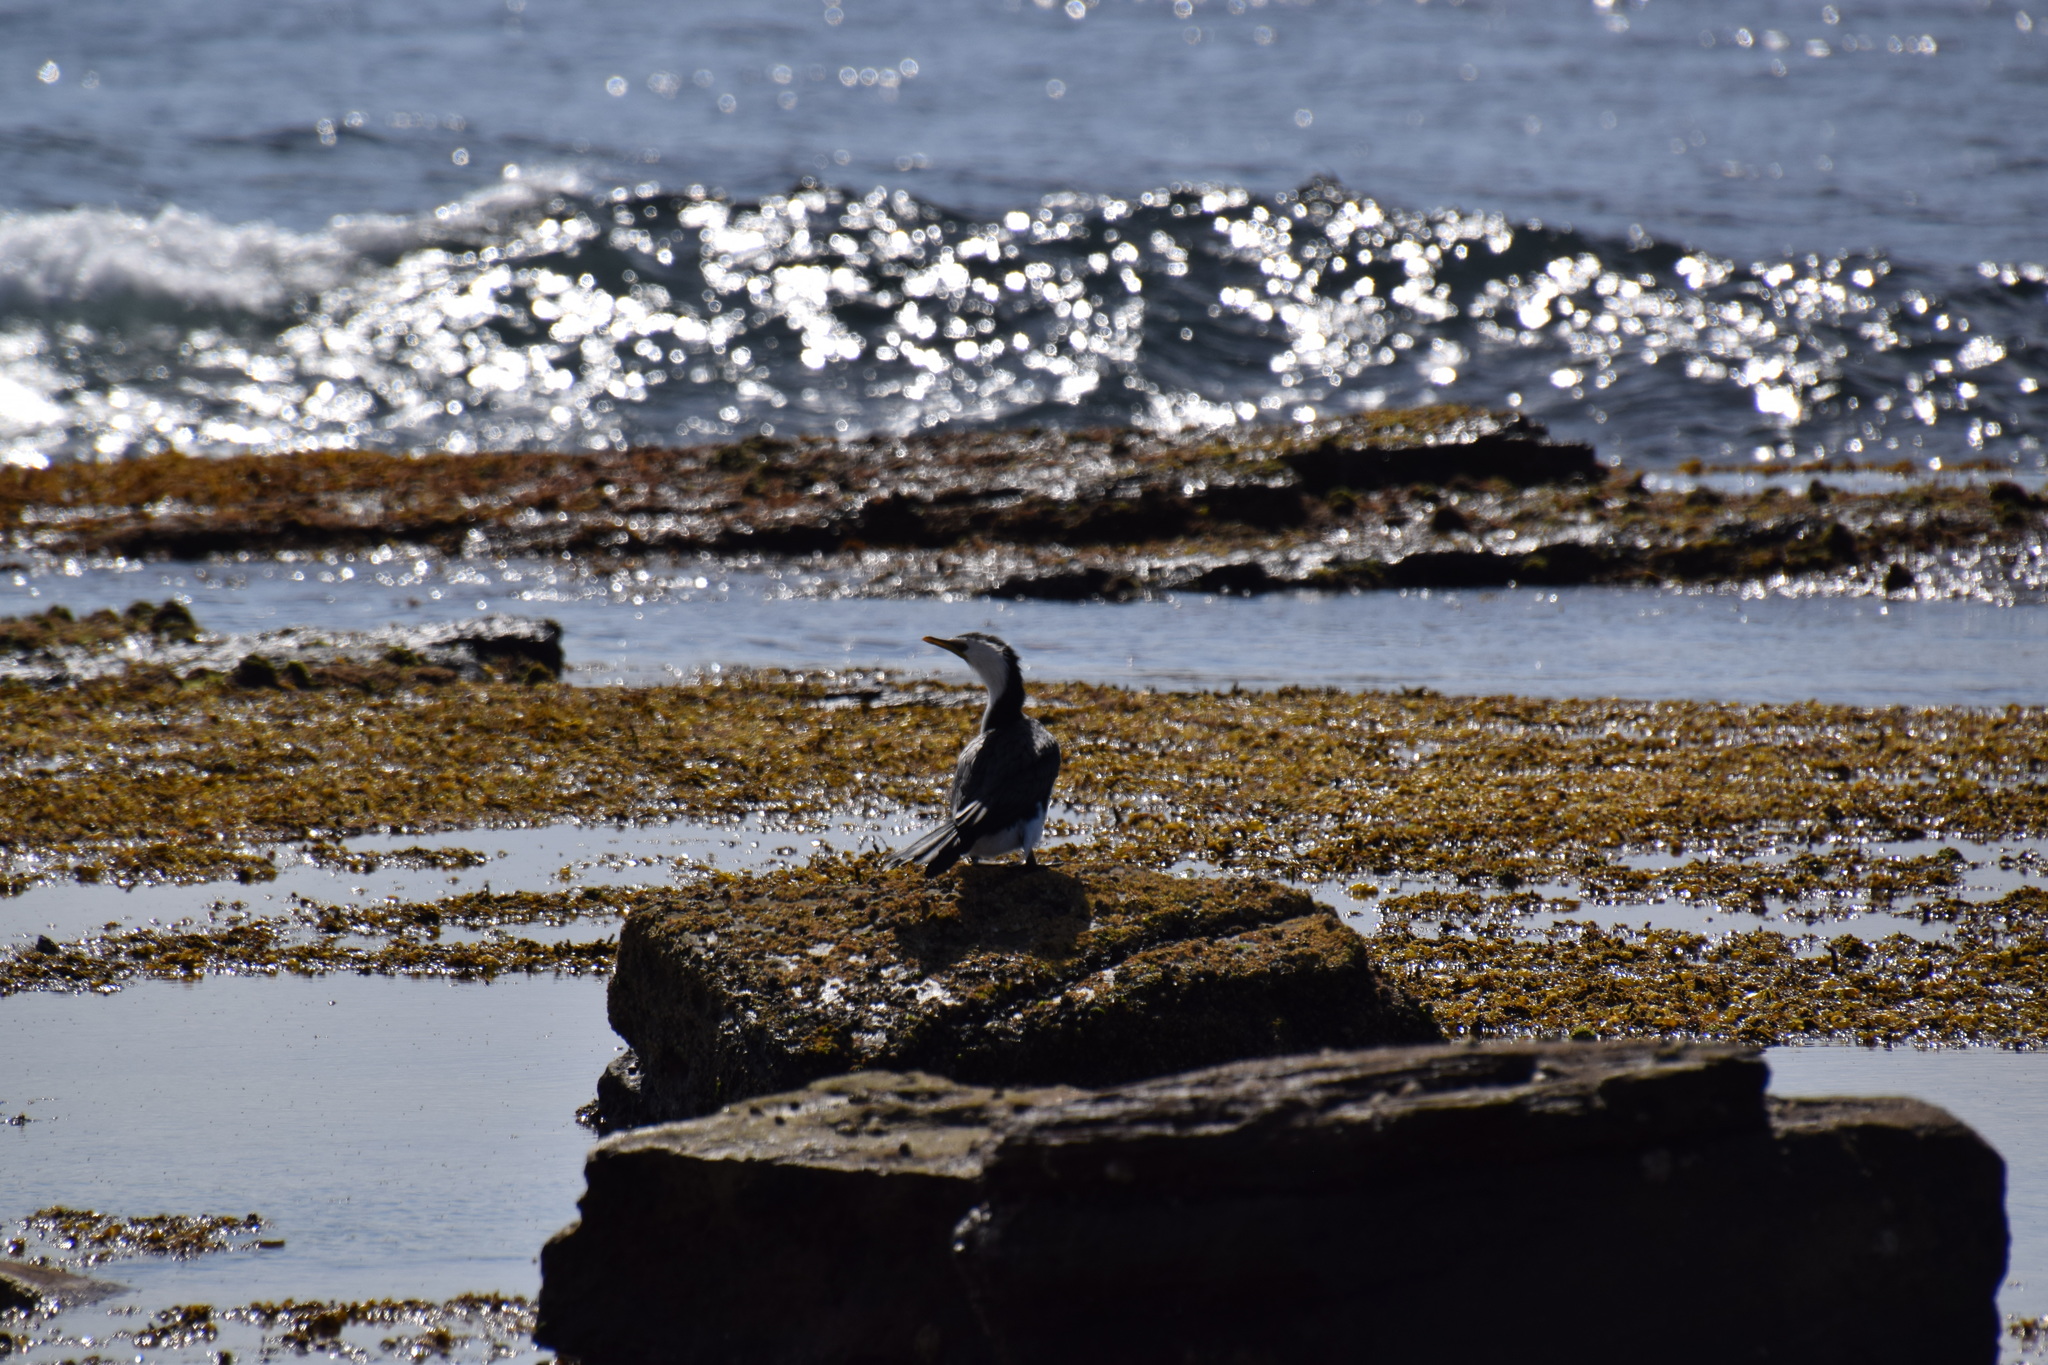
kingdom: Animalia
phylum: Chordata
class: Aves
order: Suliformes
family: Phalacrocoracidae
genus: Microcarbo
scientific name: Microcarbo melanoleucos
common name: Little pied cormorant
